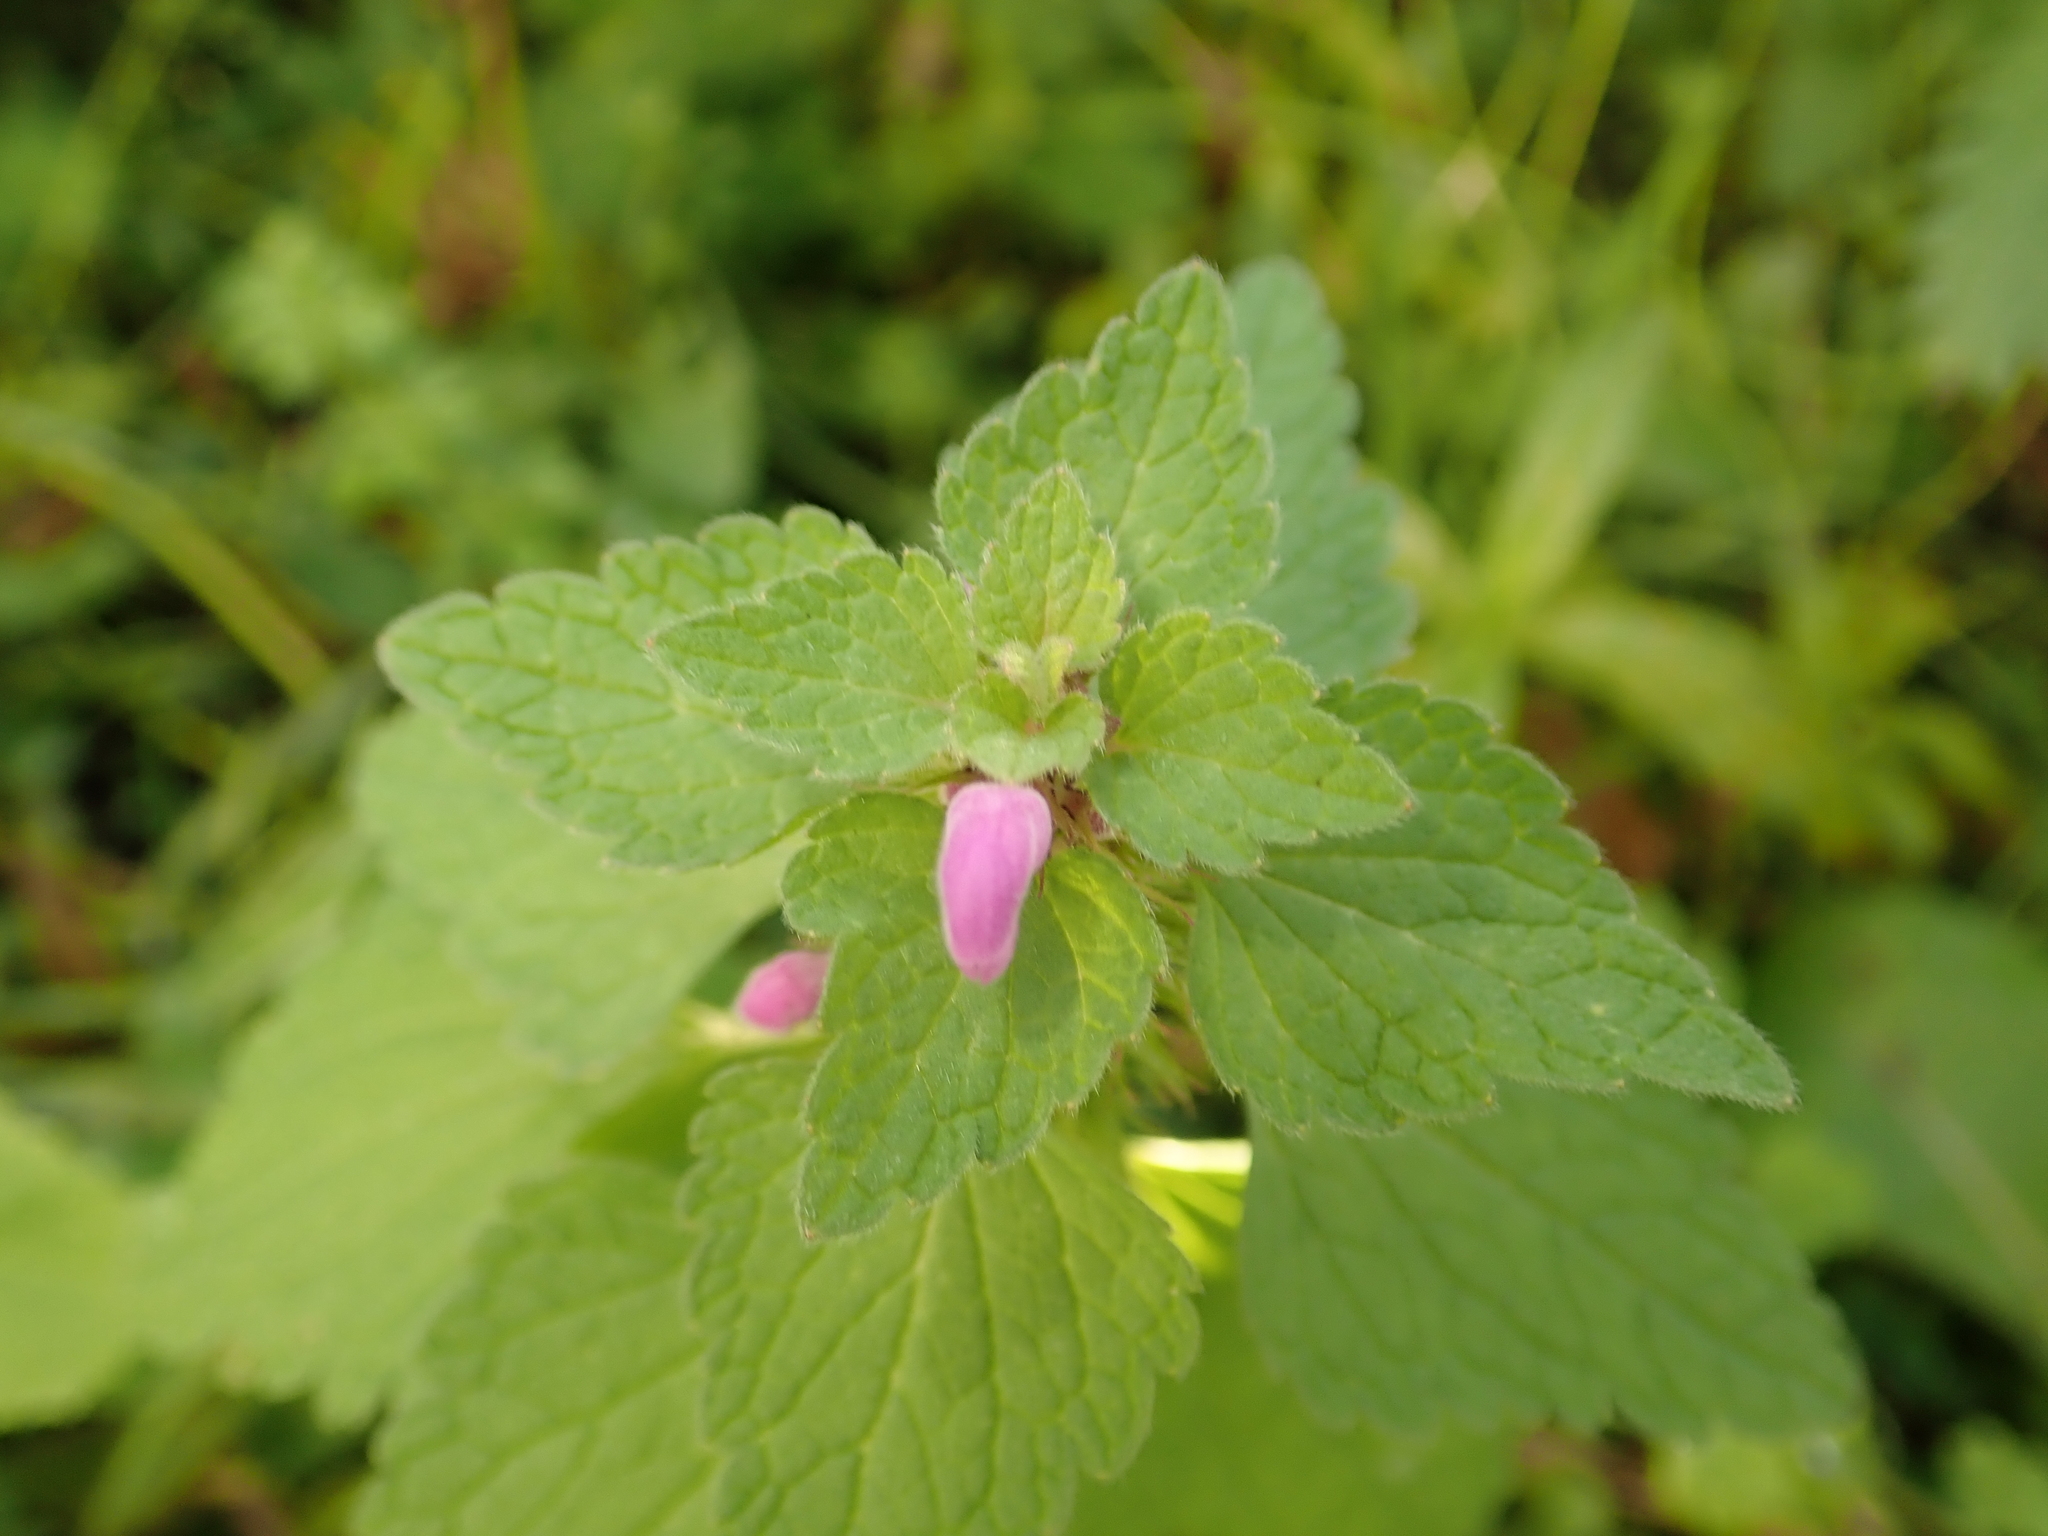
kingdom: Plantae
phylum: Tracheophyta
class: Magnoliopsida
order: Lamiales
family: Lamiaceae
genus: Lamium
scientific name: Lamium purpureum
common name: Red dead-nettle
